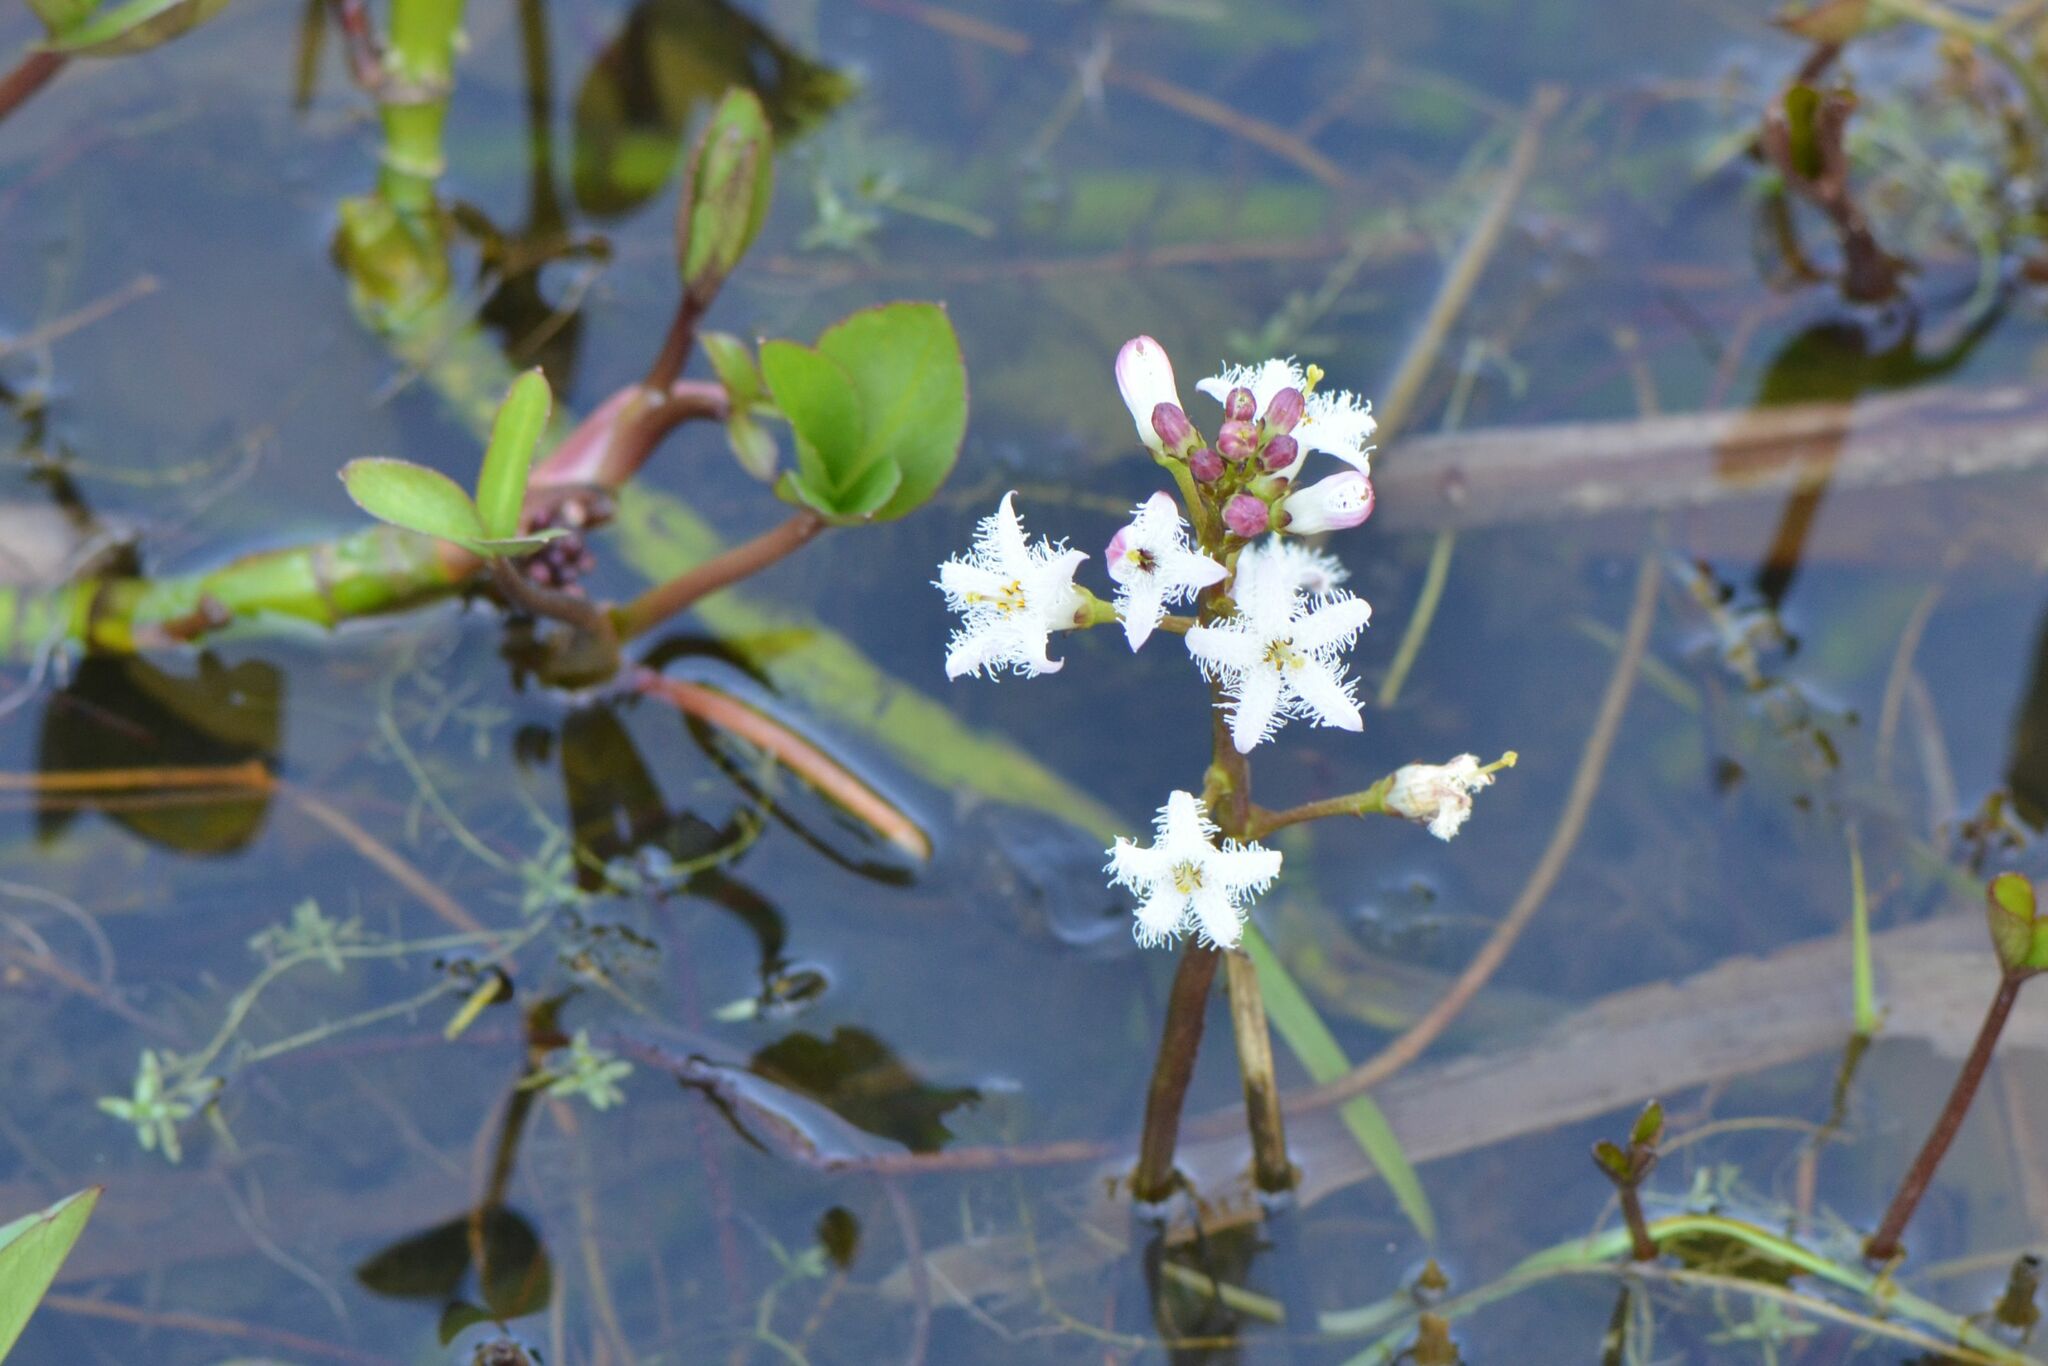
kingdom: Plantae
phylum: Tracheophyta
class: Magnoliopsida
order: Asterales
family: Menyanthaceae
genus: Menyanthes
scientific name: Menyanthes trifoliata
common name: Bogbean
